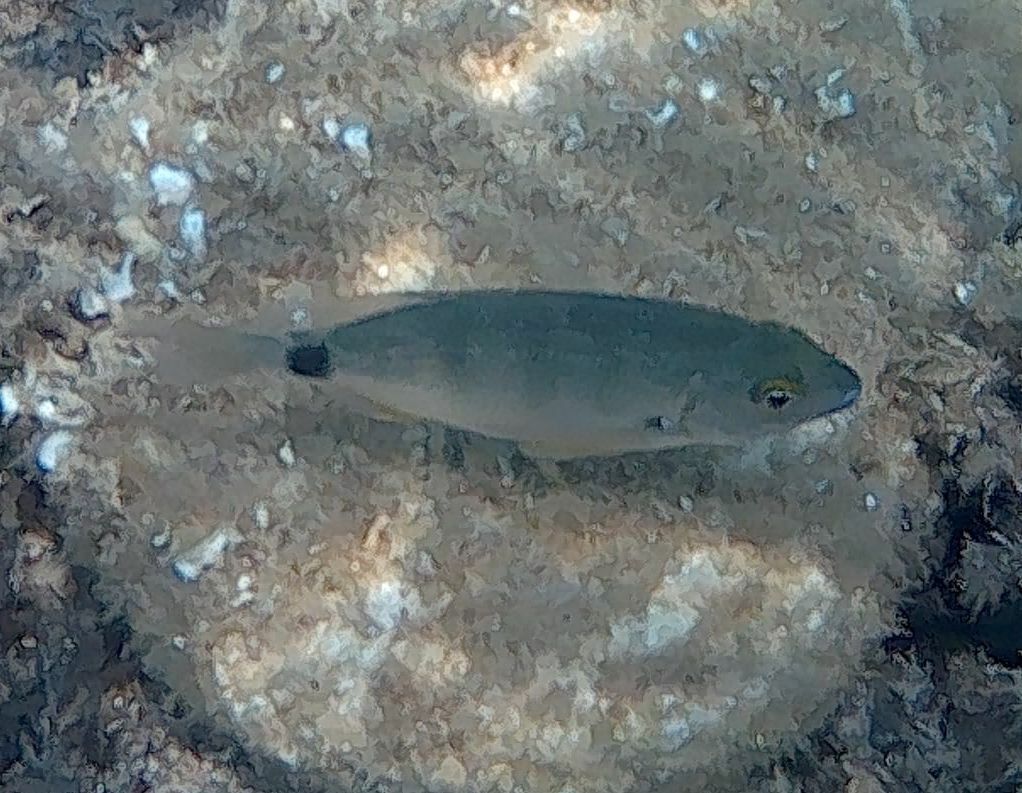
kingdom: Animalia
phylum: Chordata
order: Perciformes
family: Sparidae
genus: Diplodus
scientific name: Diplodus annularis
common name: Annular seabream
